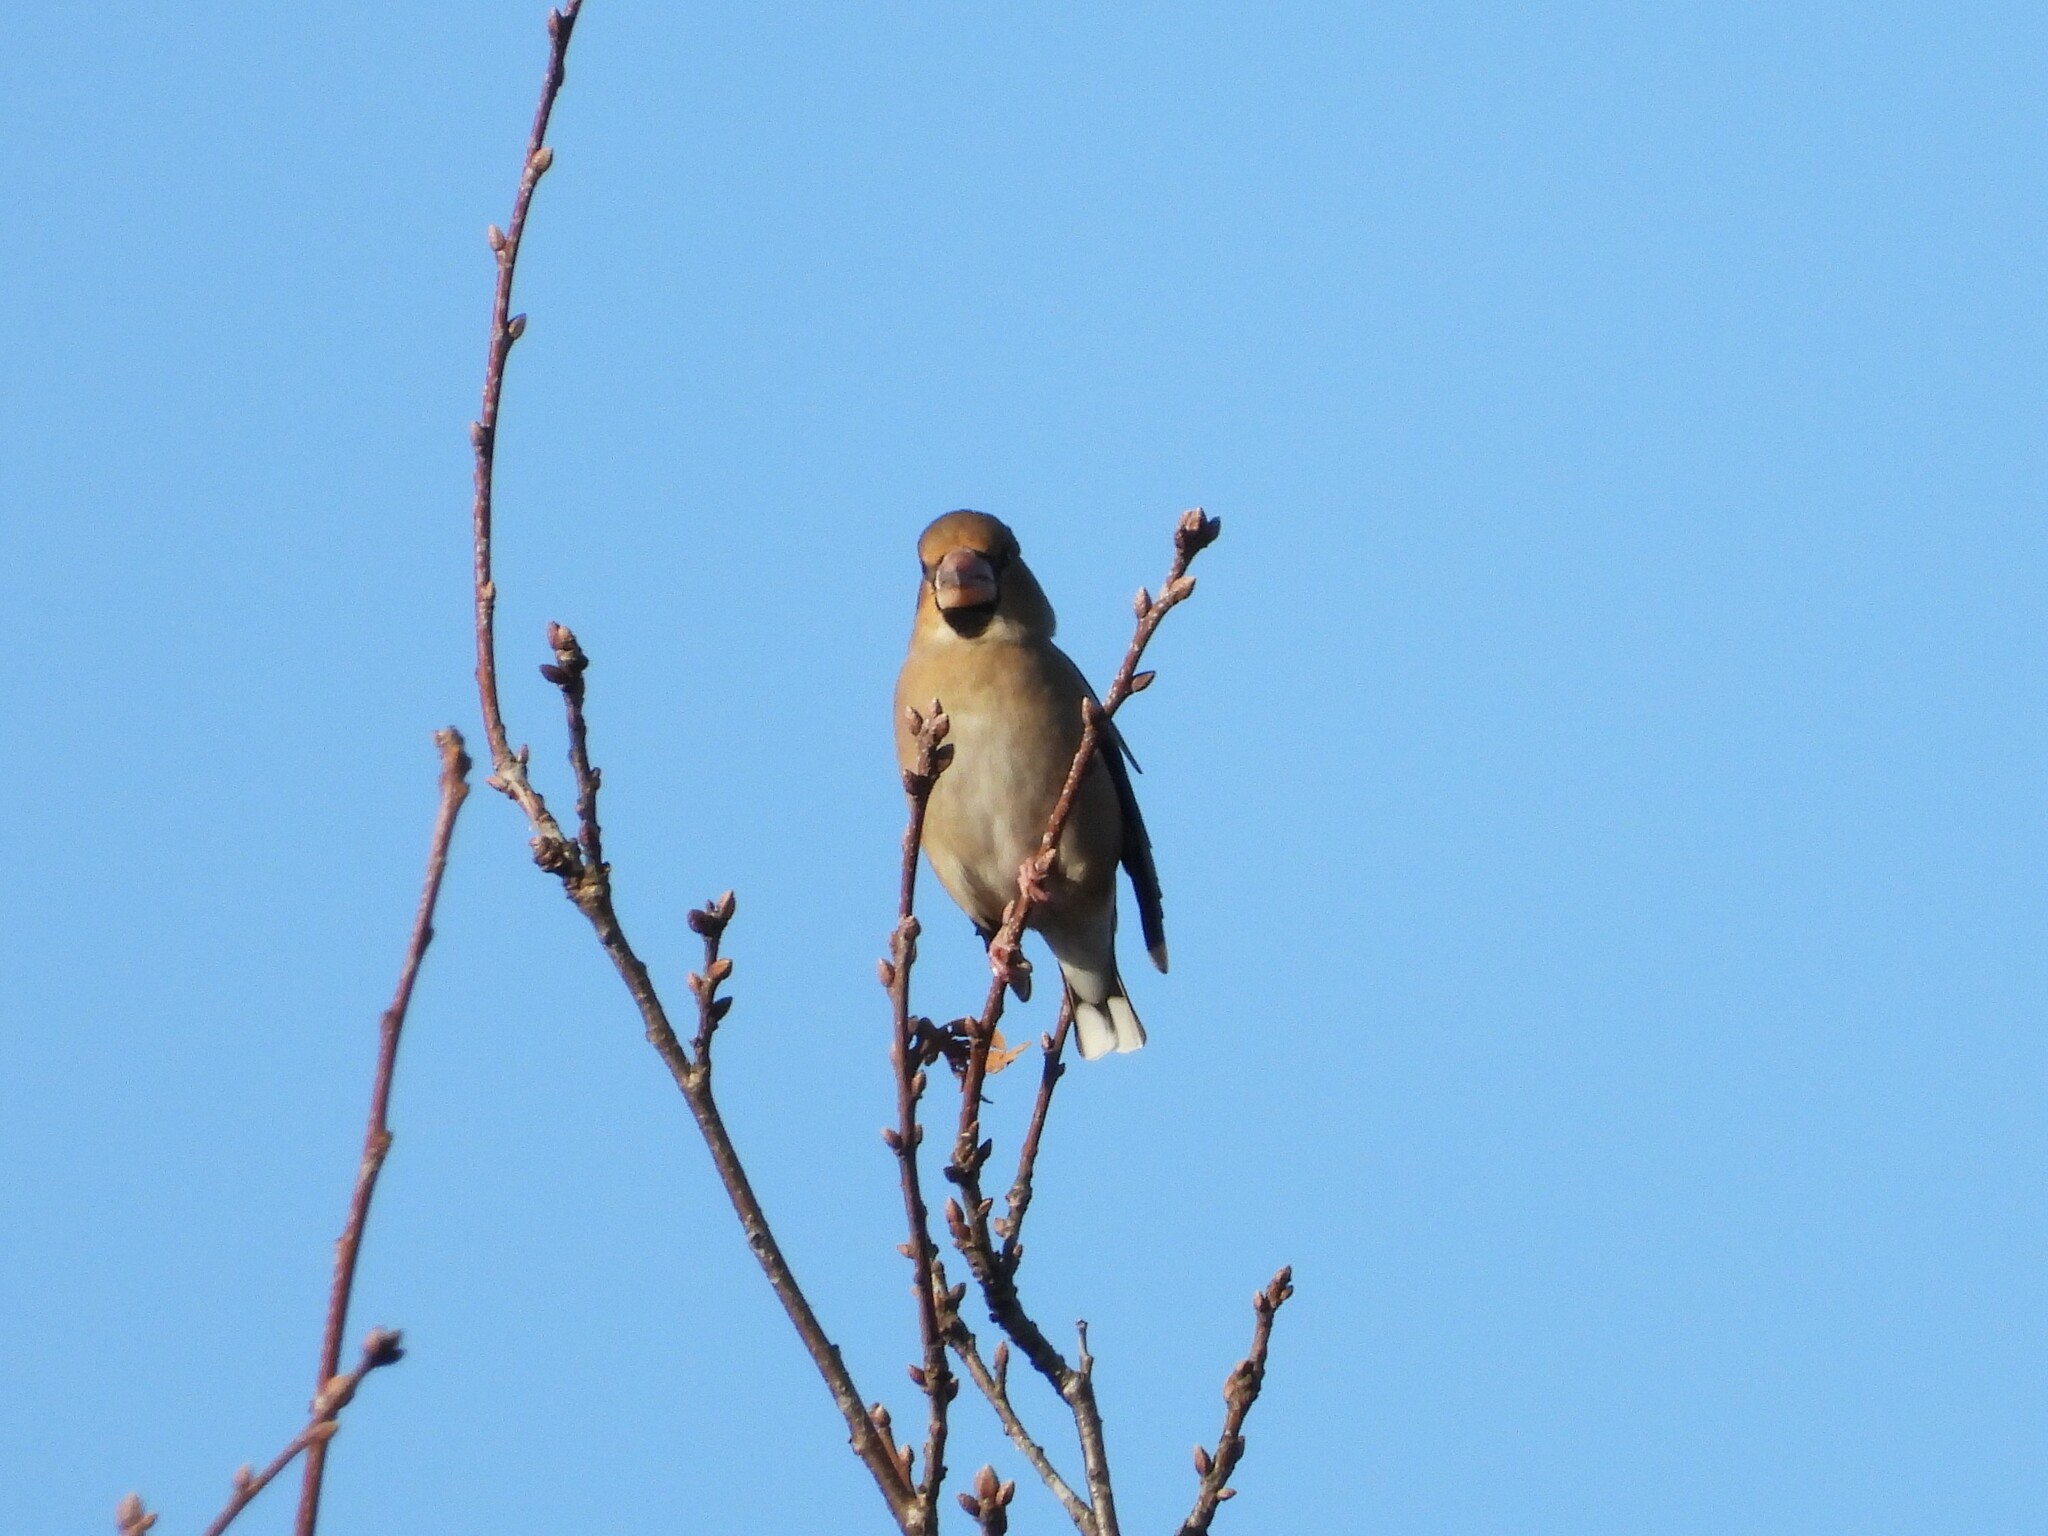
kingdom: Animalia
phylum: Chordata
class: Aves
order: Passeriformes
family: Fringillidae
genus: Coccothraustes
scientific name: Coccothraustes coccothraustes
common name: Hawfinch
